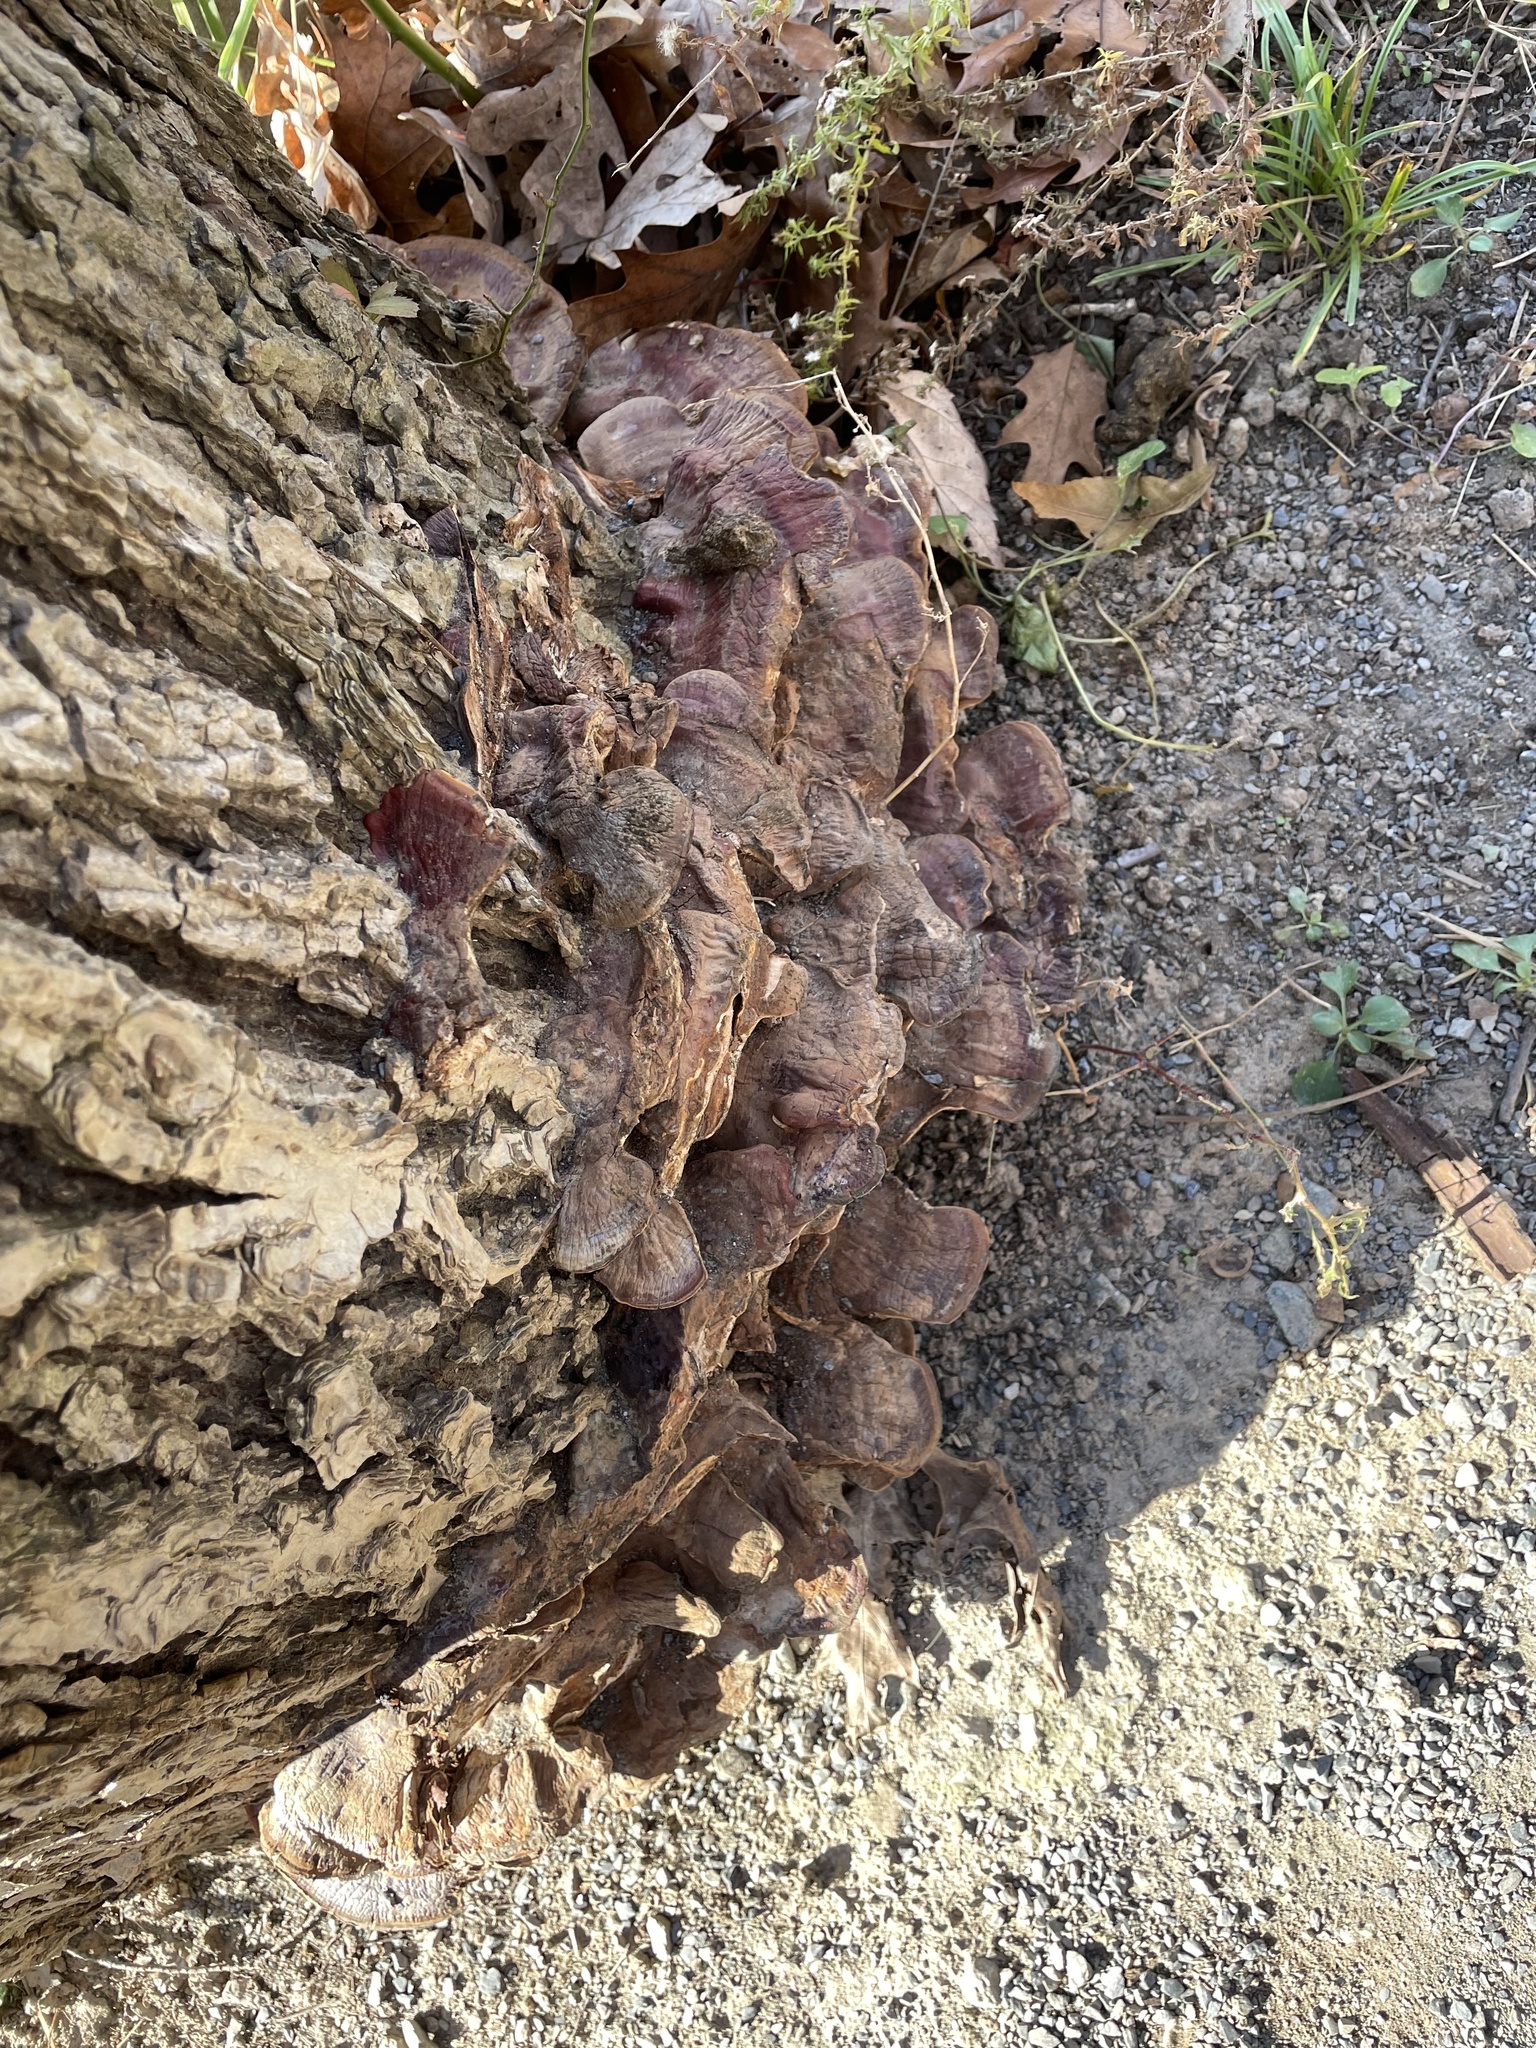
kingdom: Fungi
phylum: Basidiomycota
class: Agaricomycetes
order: Polyporales
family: Polyporaceae
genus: Ganoderma
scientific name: Ganoderma resinaceum
